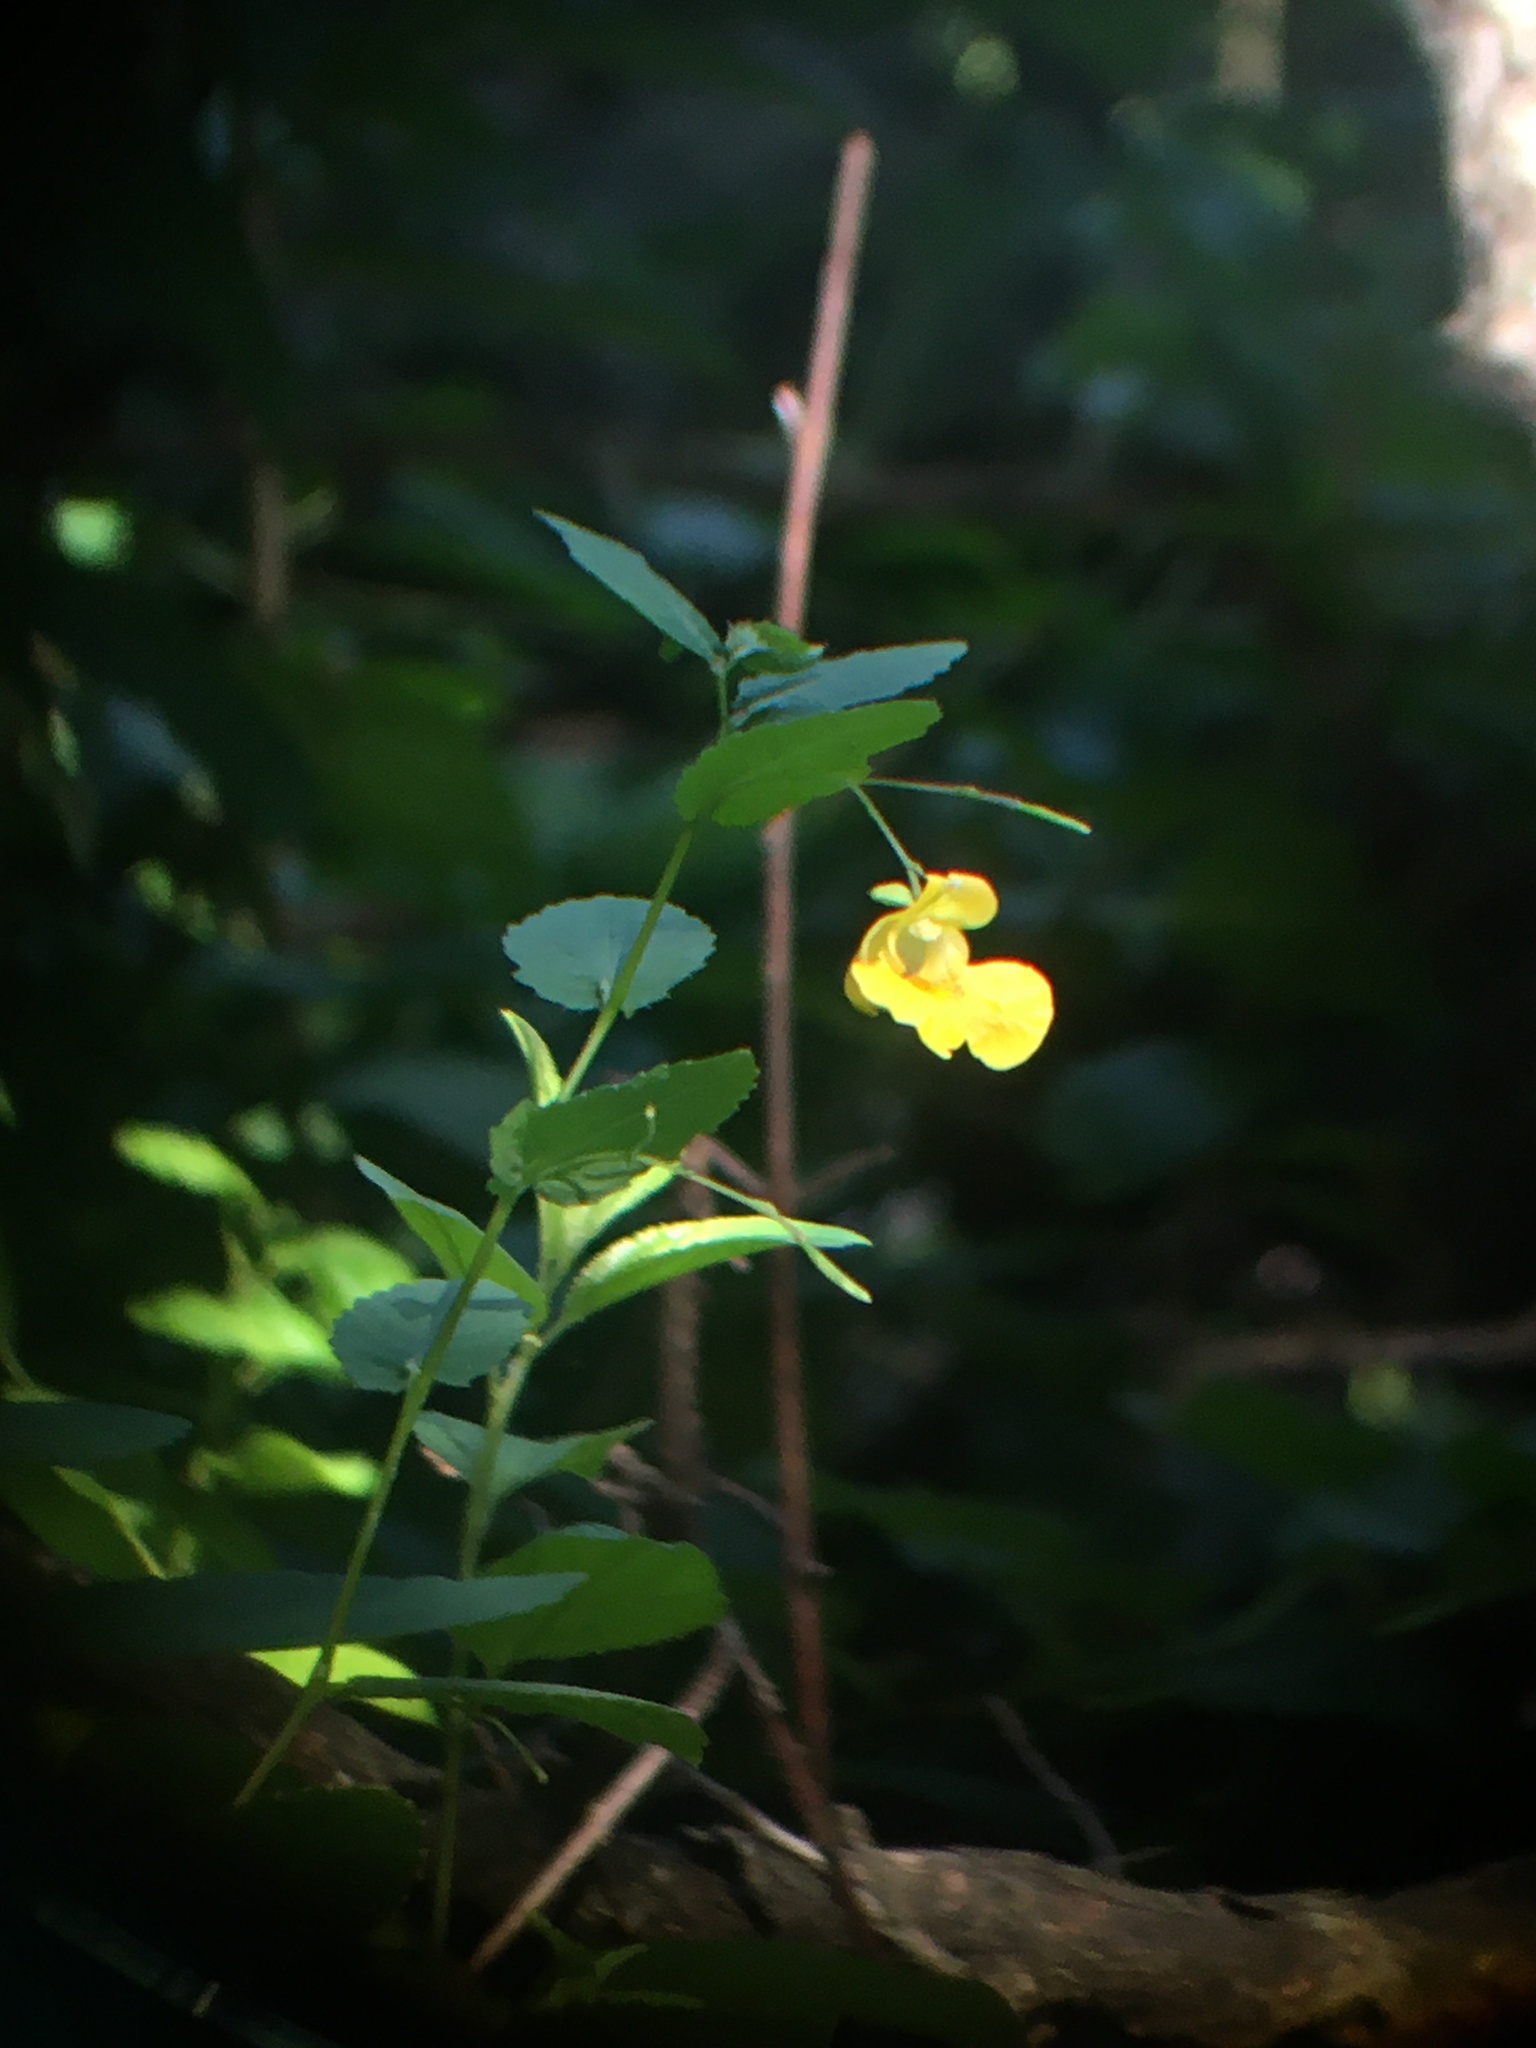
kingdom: Plantae
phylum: Tracheophyta
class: Magnoliopsida
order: Ericales
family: Balsaminaceae
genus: Impatiens
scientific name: Impatiens pallida
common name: Pale snapweed
